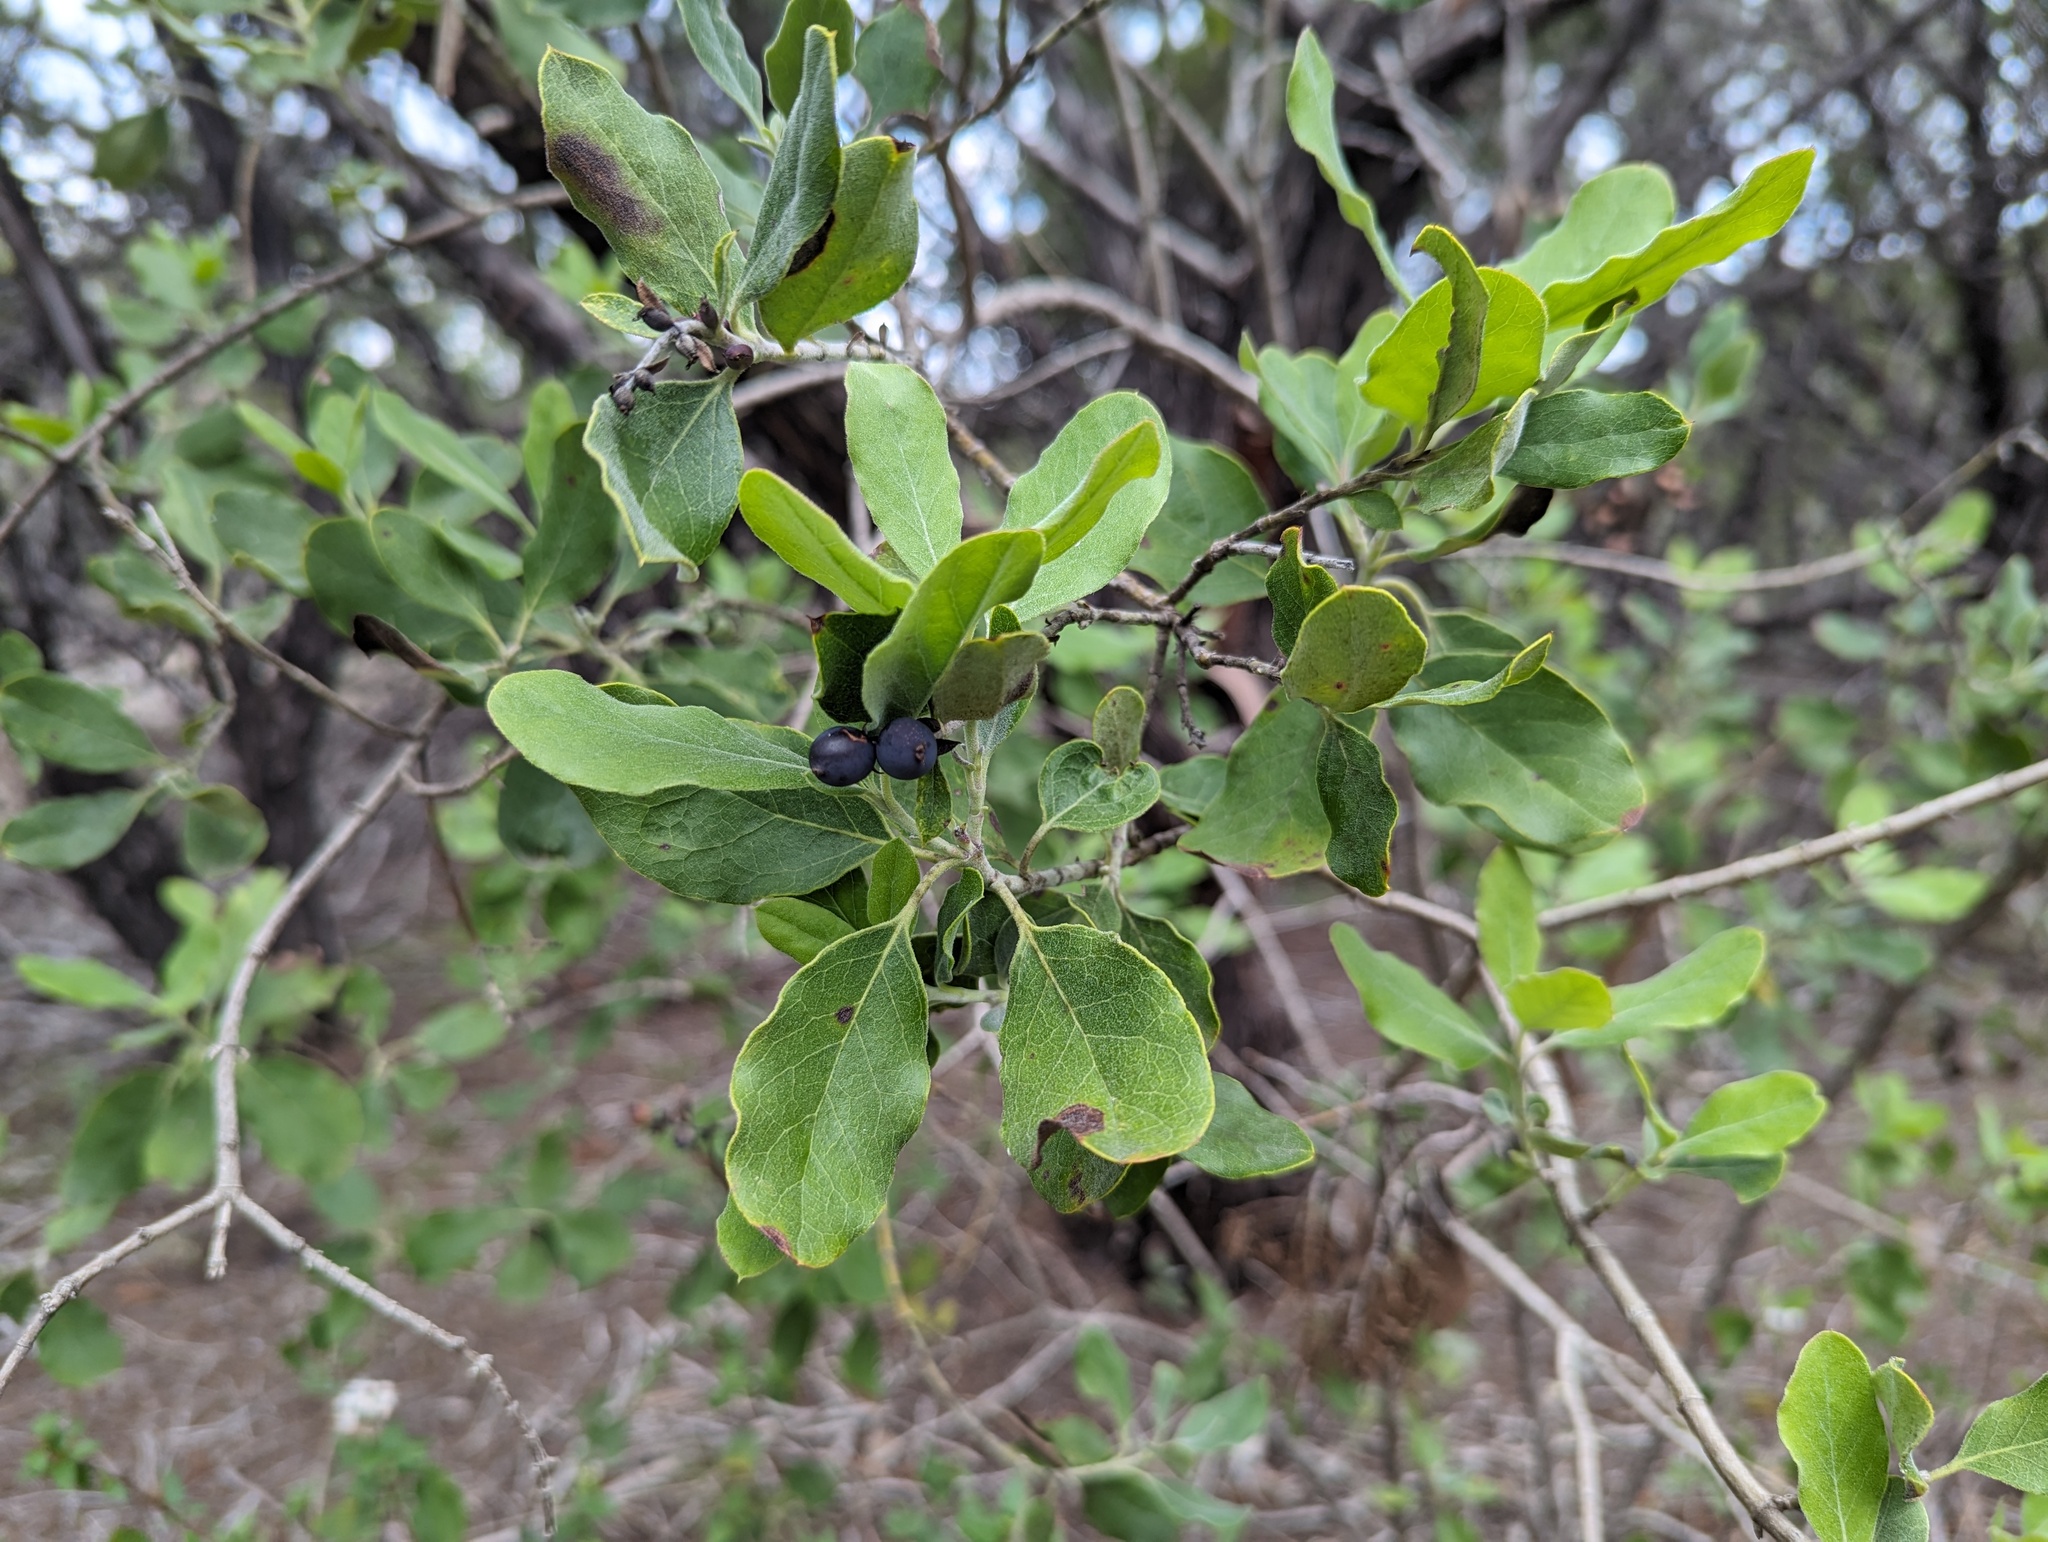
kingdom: Plantae
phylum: Tracheophyta
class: Magnoliopsida
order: Garryales
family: Garryaceae
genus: Garrya
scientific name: Garrya lindheimeri
